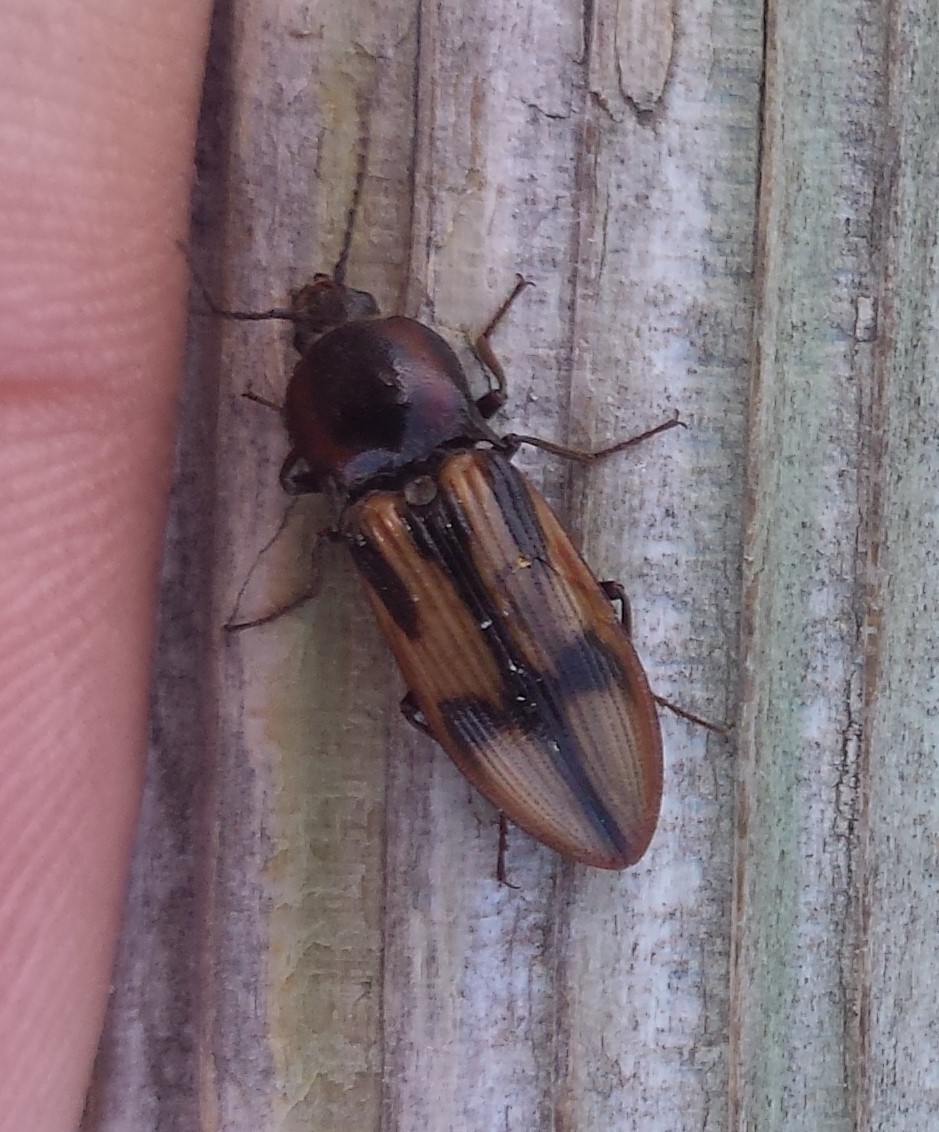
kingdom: Animalia
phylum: Arthropoda
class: Insecta
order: Coleoptera
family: Elateridae
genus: Selatosomus
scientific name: Selatosomus pulcher
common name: Noble click beetle
